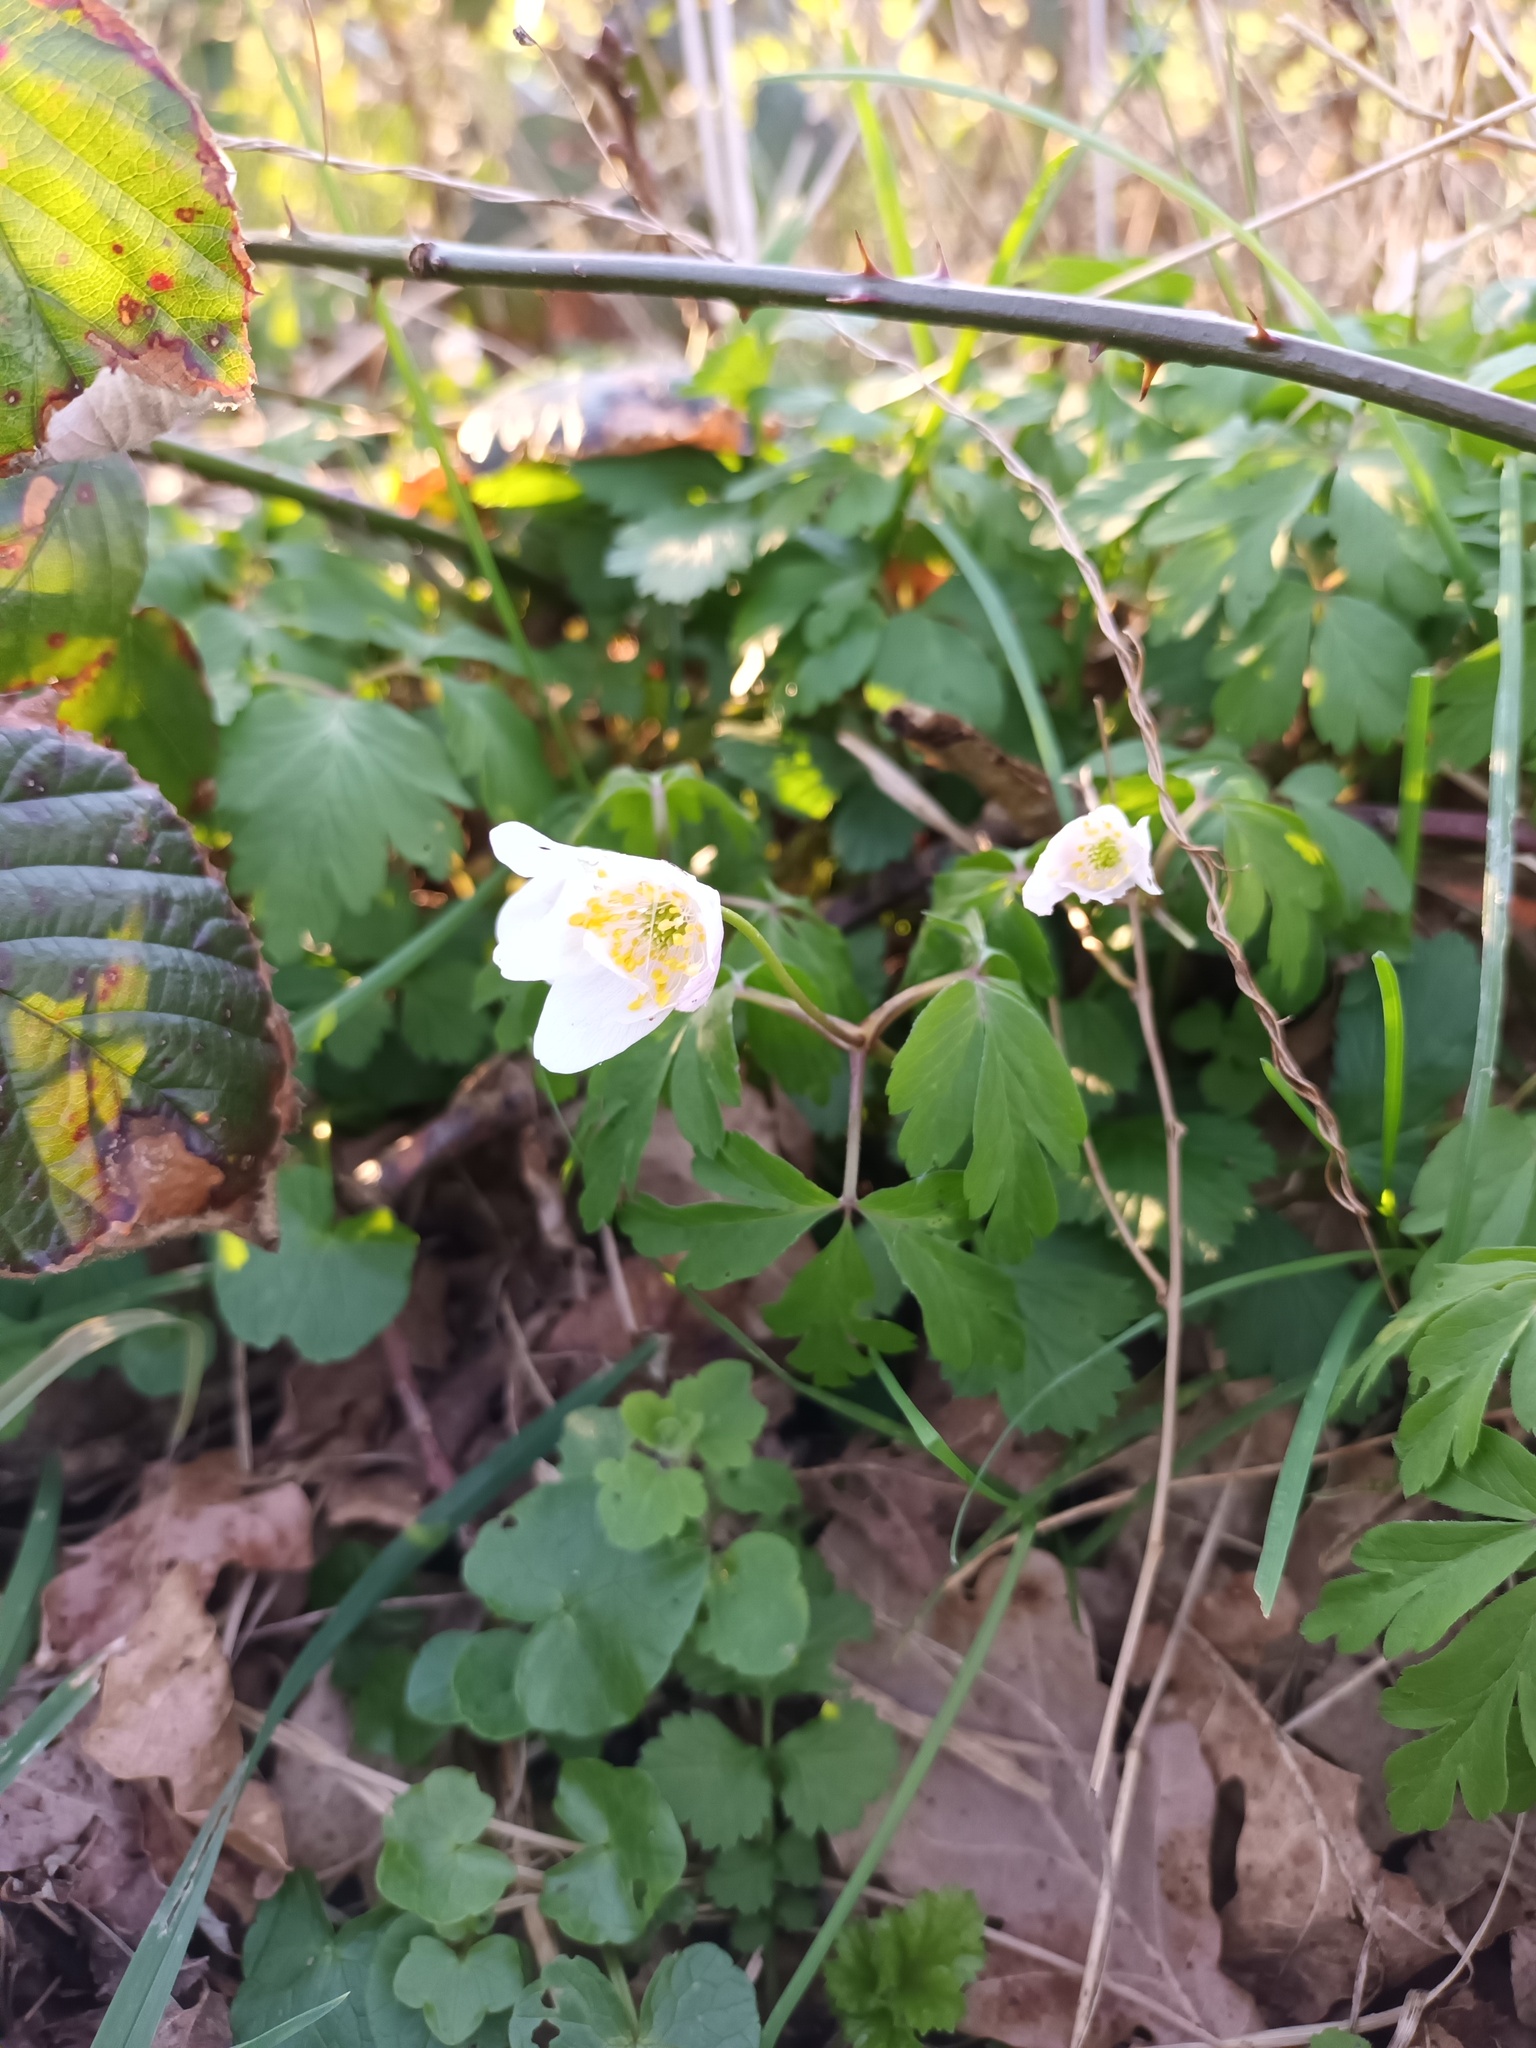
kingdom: Plantae
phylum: Tracheophyta
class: Magnoliopsida
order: Ranunculales
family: Ranunculaceae
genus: Anemone
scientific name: Anemone nemorosa
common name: Wood anemone
